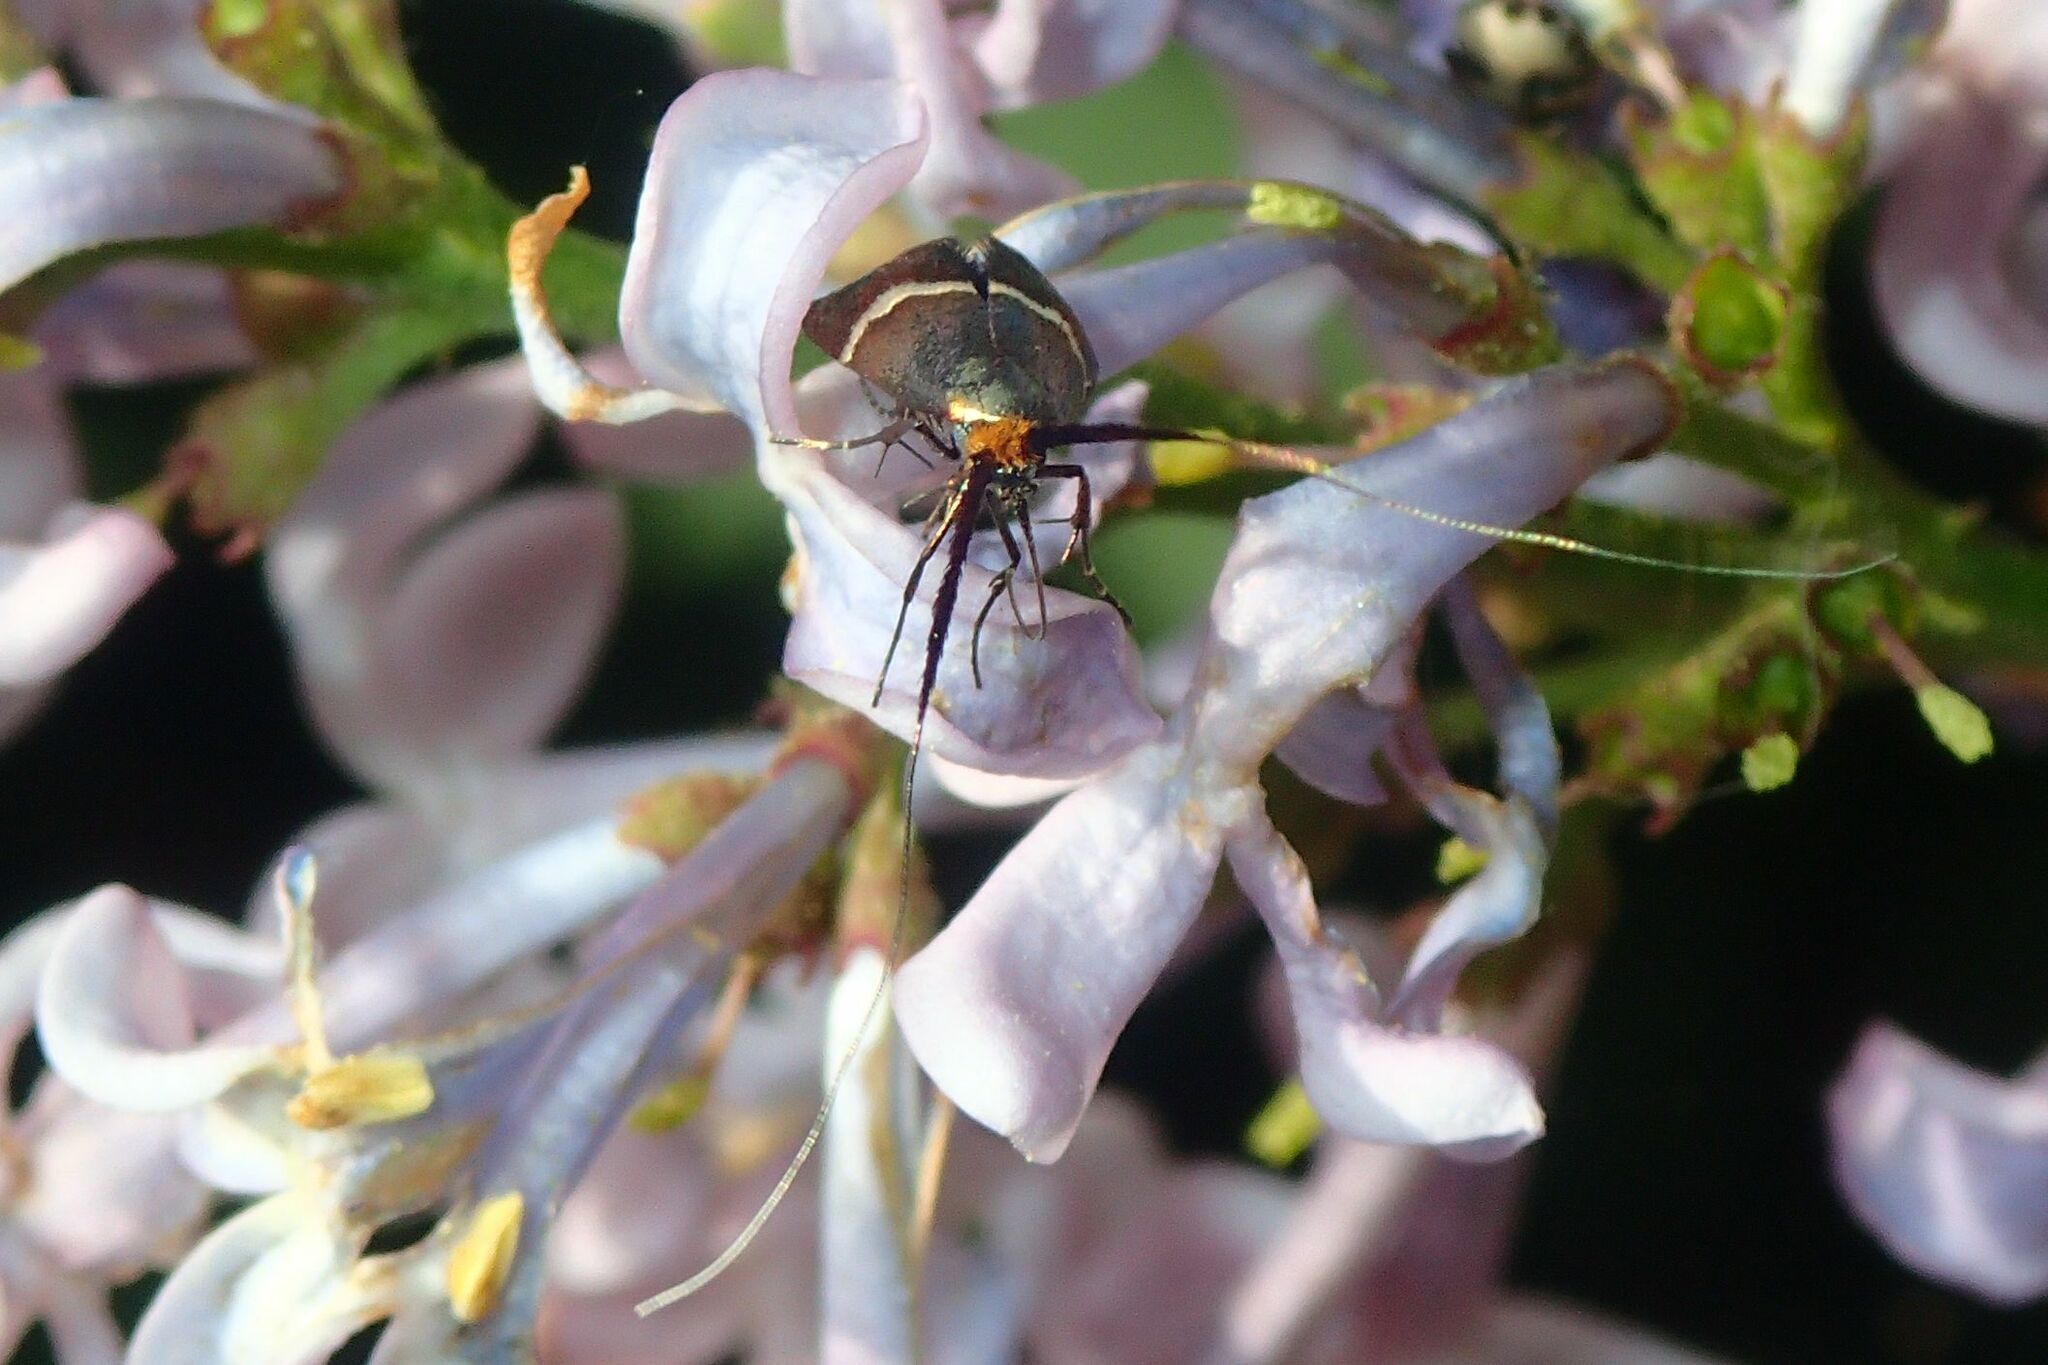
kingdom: Animalia
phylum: Arthropoda
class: Insecta
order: Lepidoptera
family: Adelidae
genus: Adela
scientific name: Adela australis
